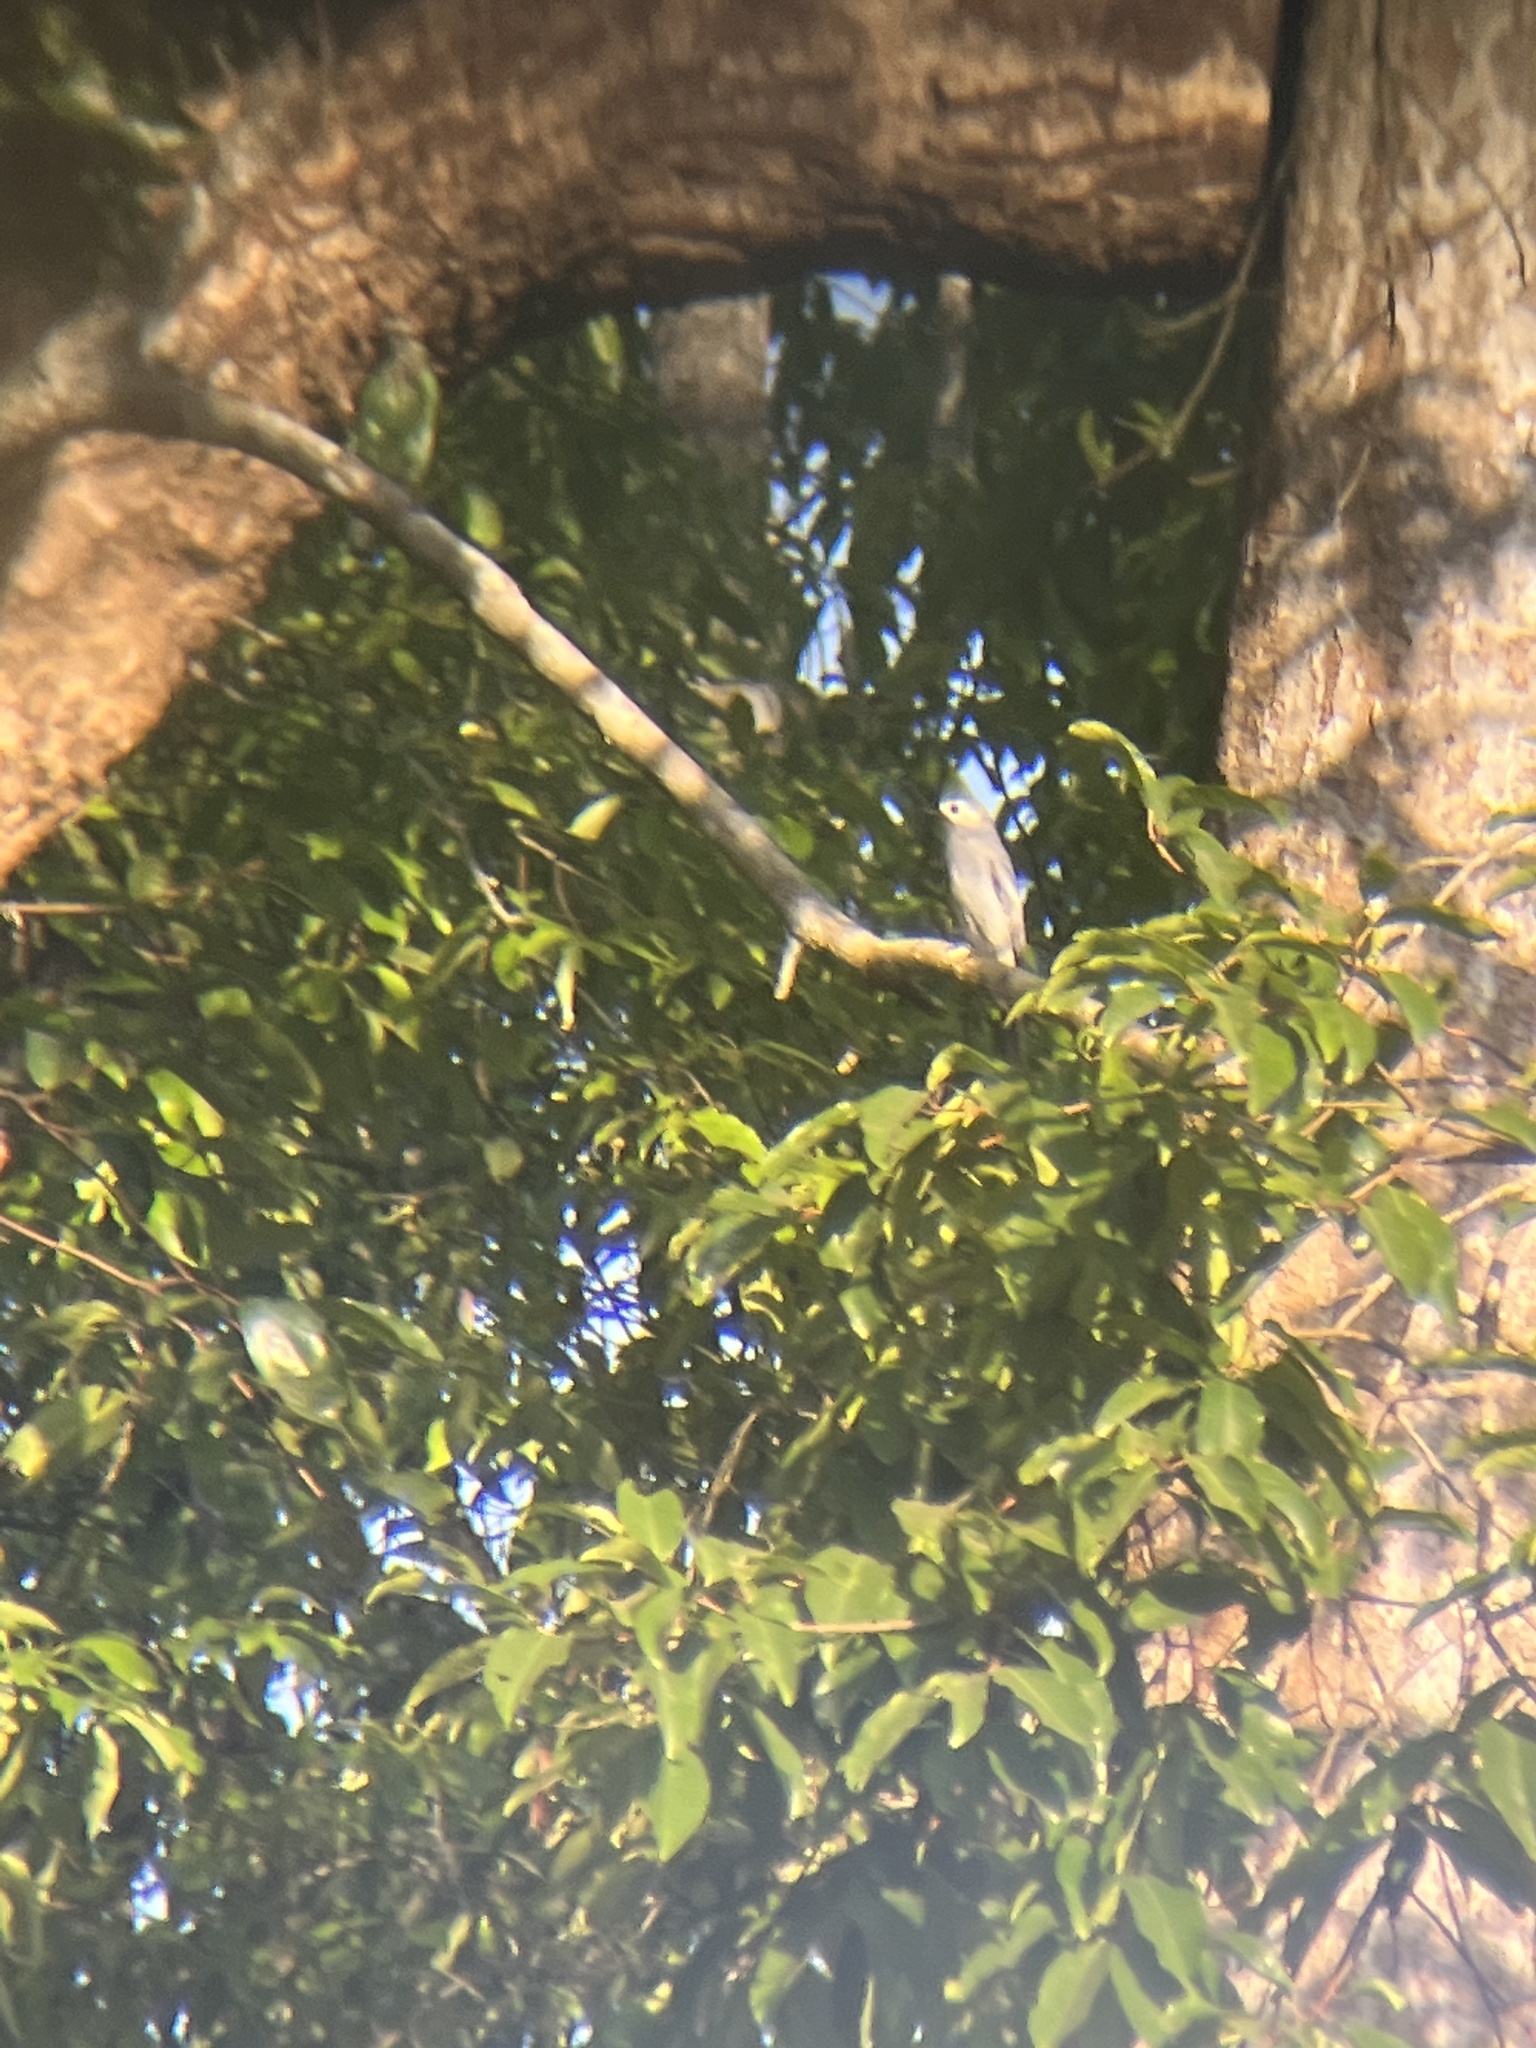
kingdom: Animalia
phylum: Chordata
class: Aves
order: Passeriformes
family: Dicruridae
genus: Dicrurus
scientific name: Dicrurus leucophaeus
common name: Ashy drongo
